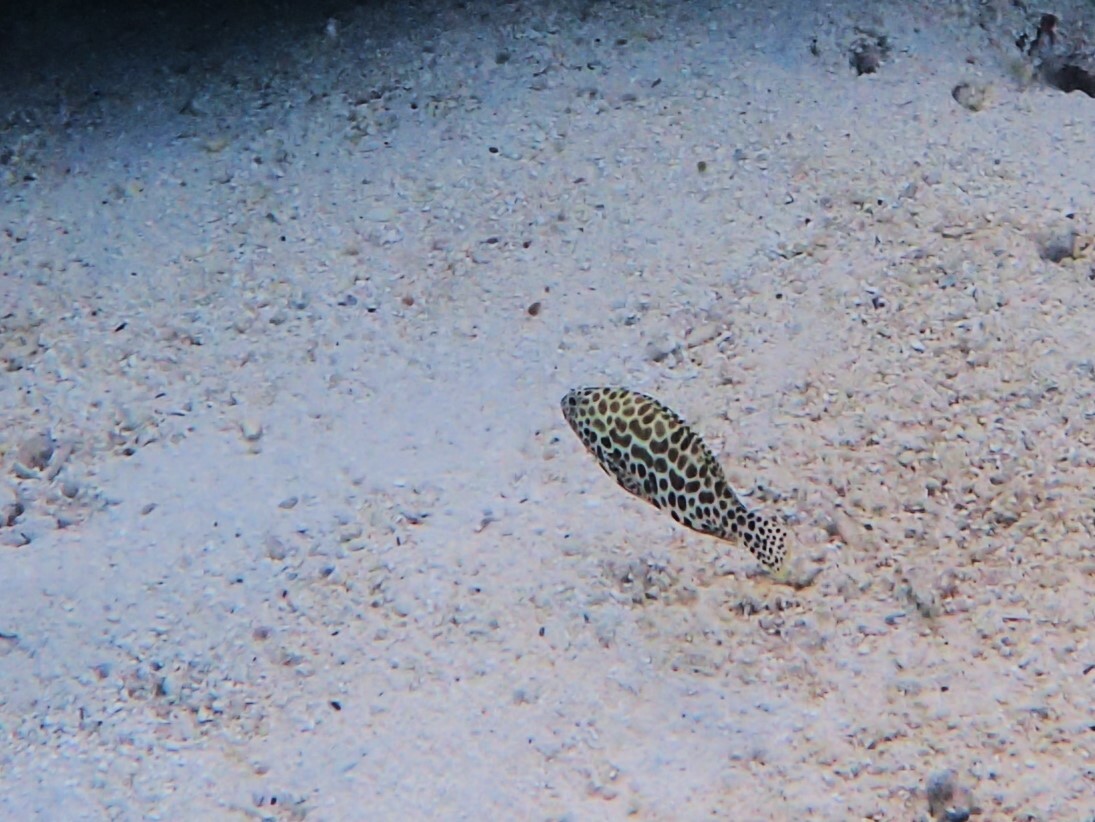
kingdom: Animalia
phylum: Chordata
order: Perciformes
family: Serranidae
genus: Epinephelus
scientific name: Epinephelus merra
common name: Honeycomb grouper
